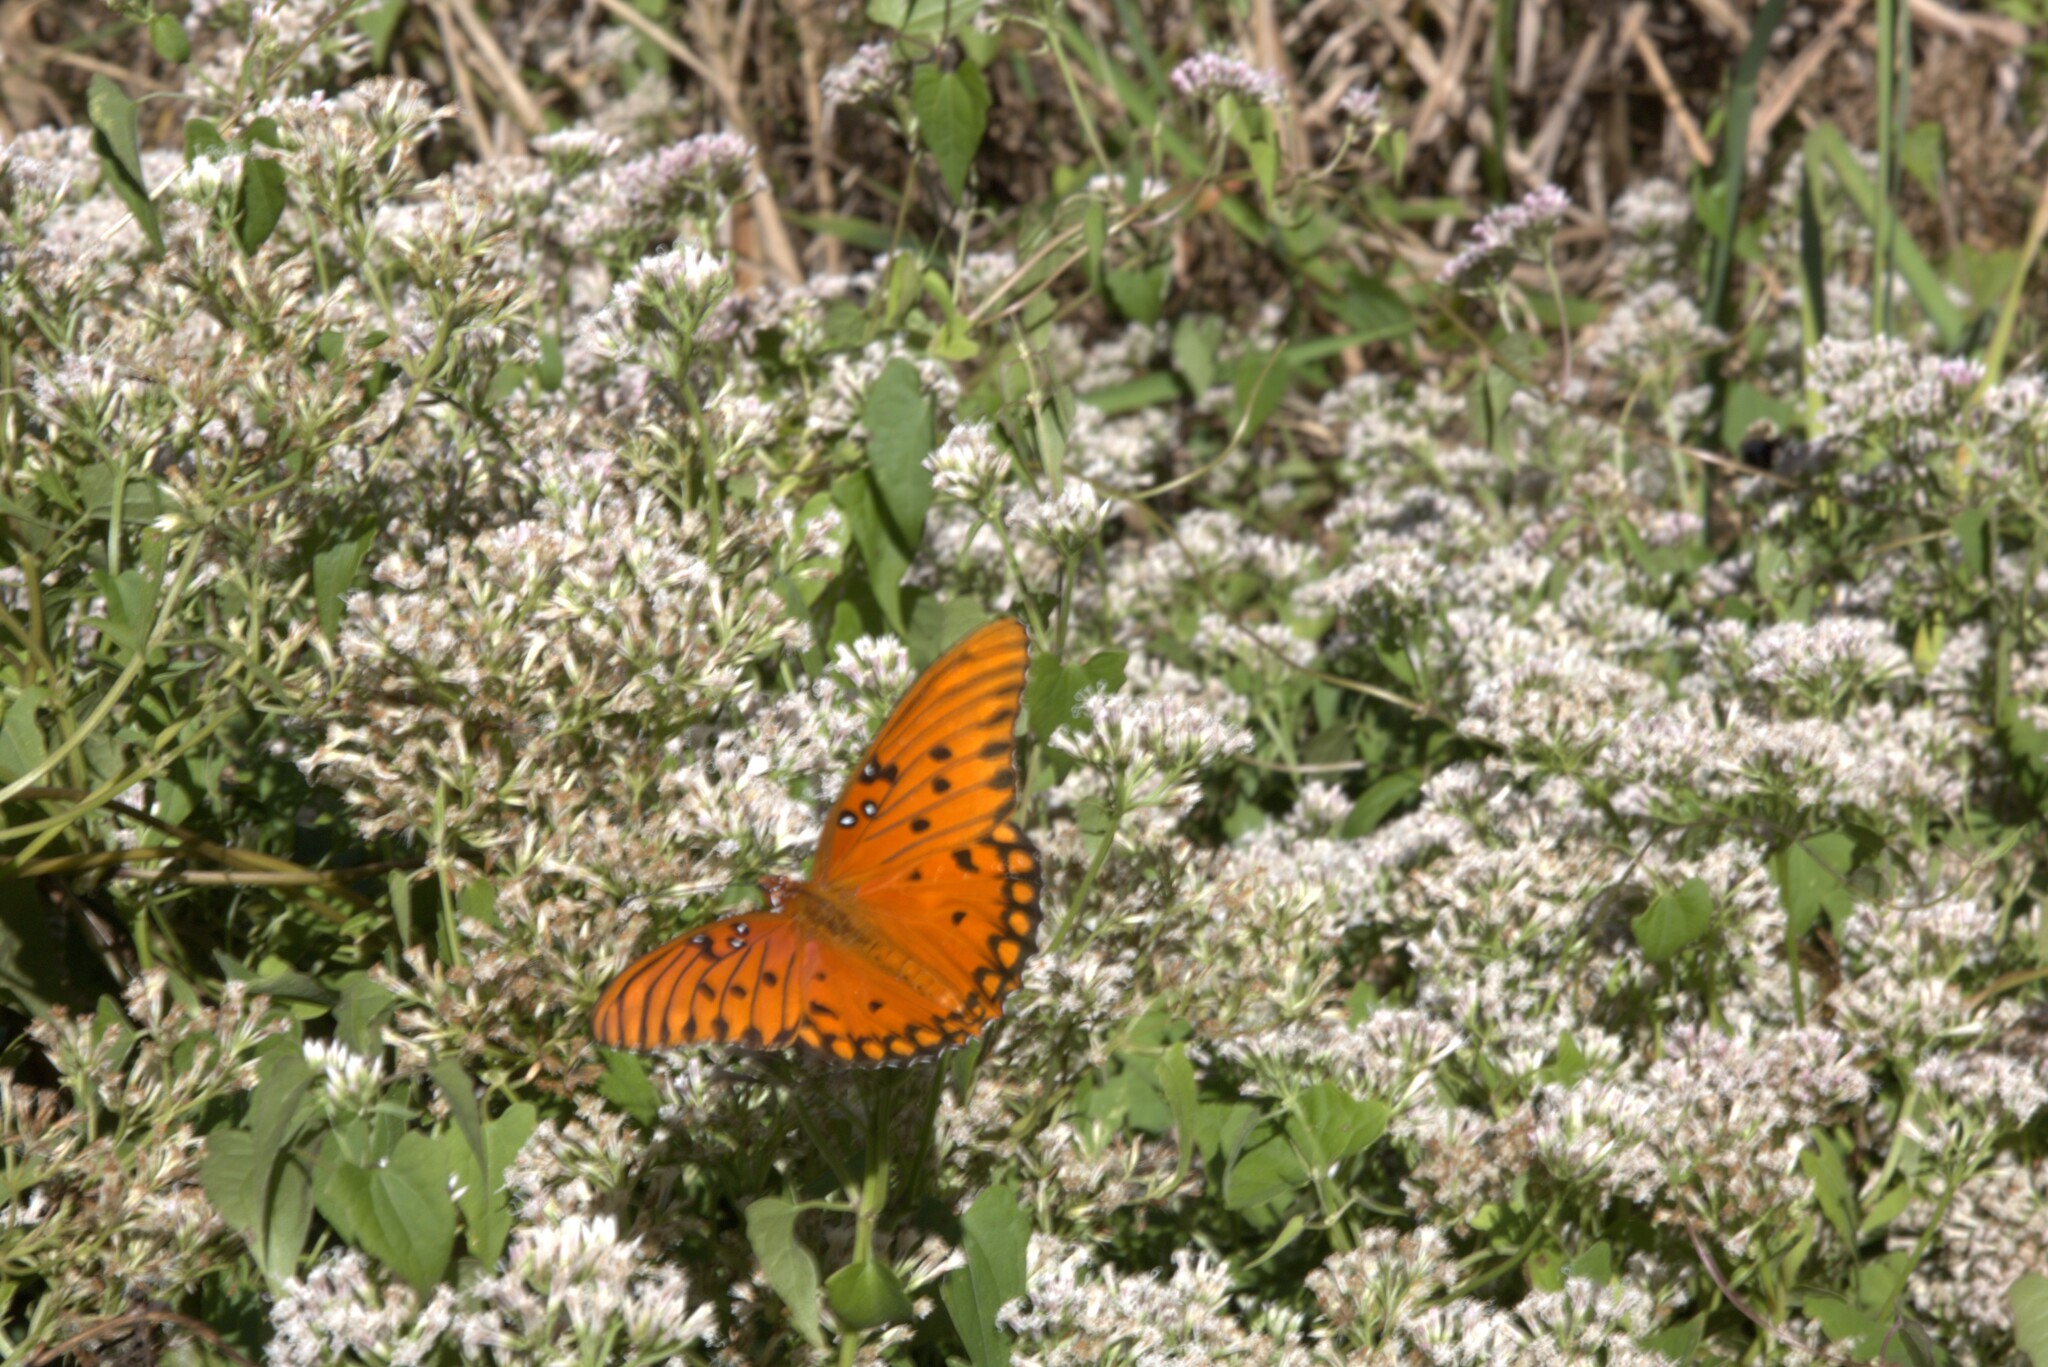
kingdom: Animalia
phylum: Arthropoda
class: Insecta
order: Lepidoptera
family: Nymphalidae
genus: Dione
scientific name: Dione vanillae
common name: Gulf fritillary
